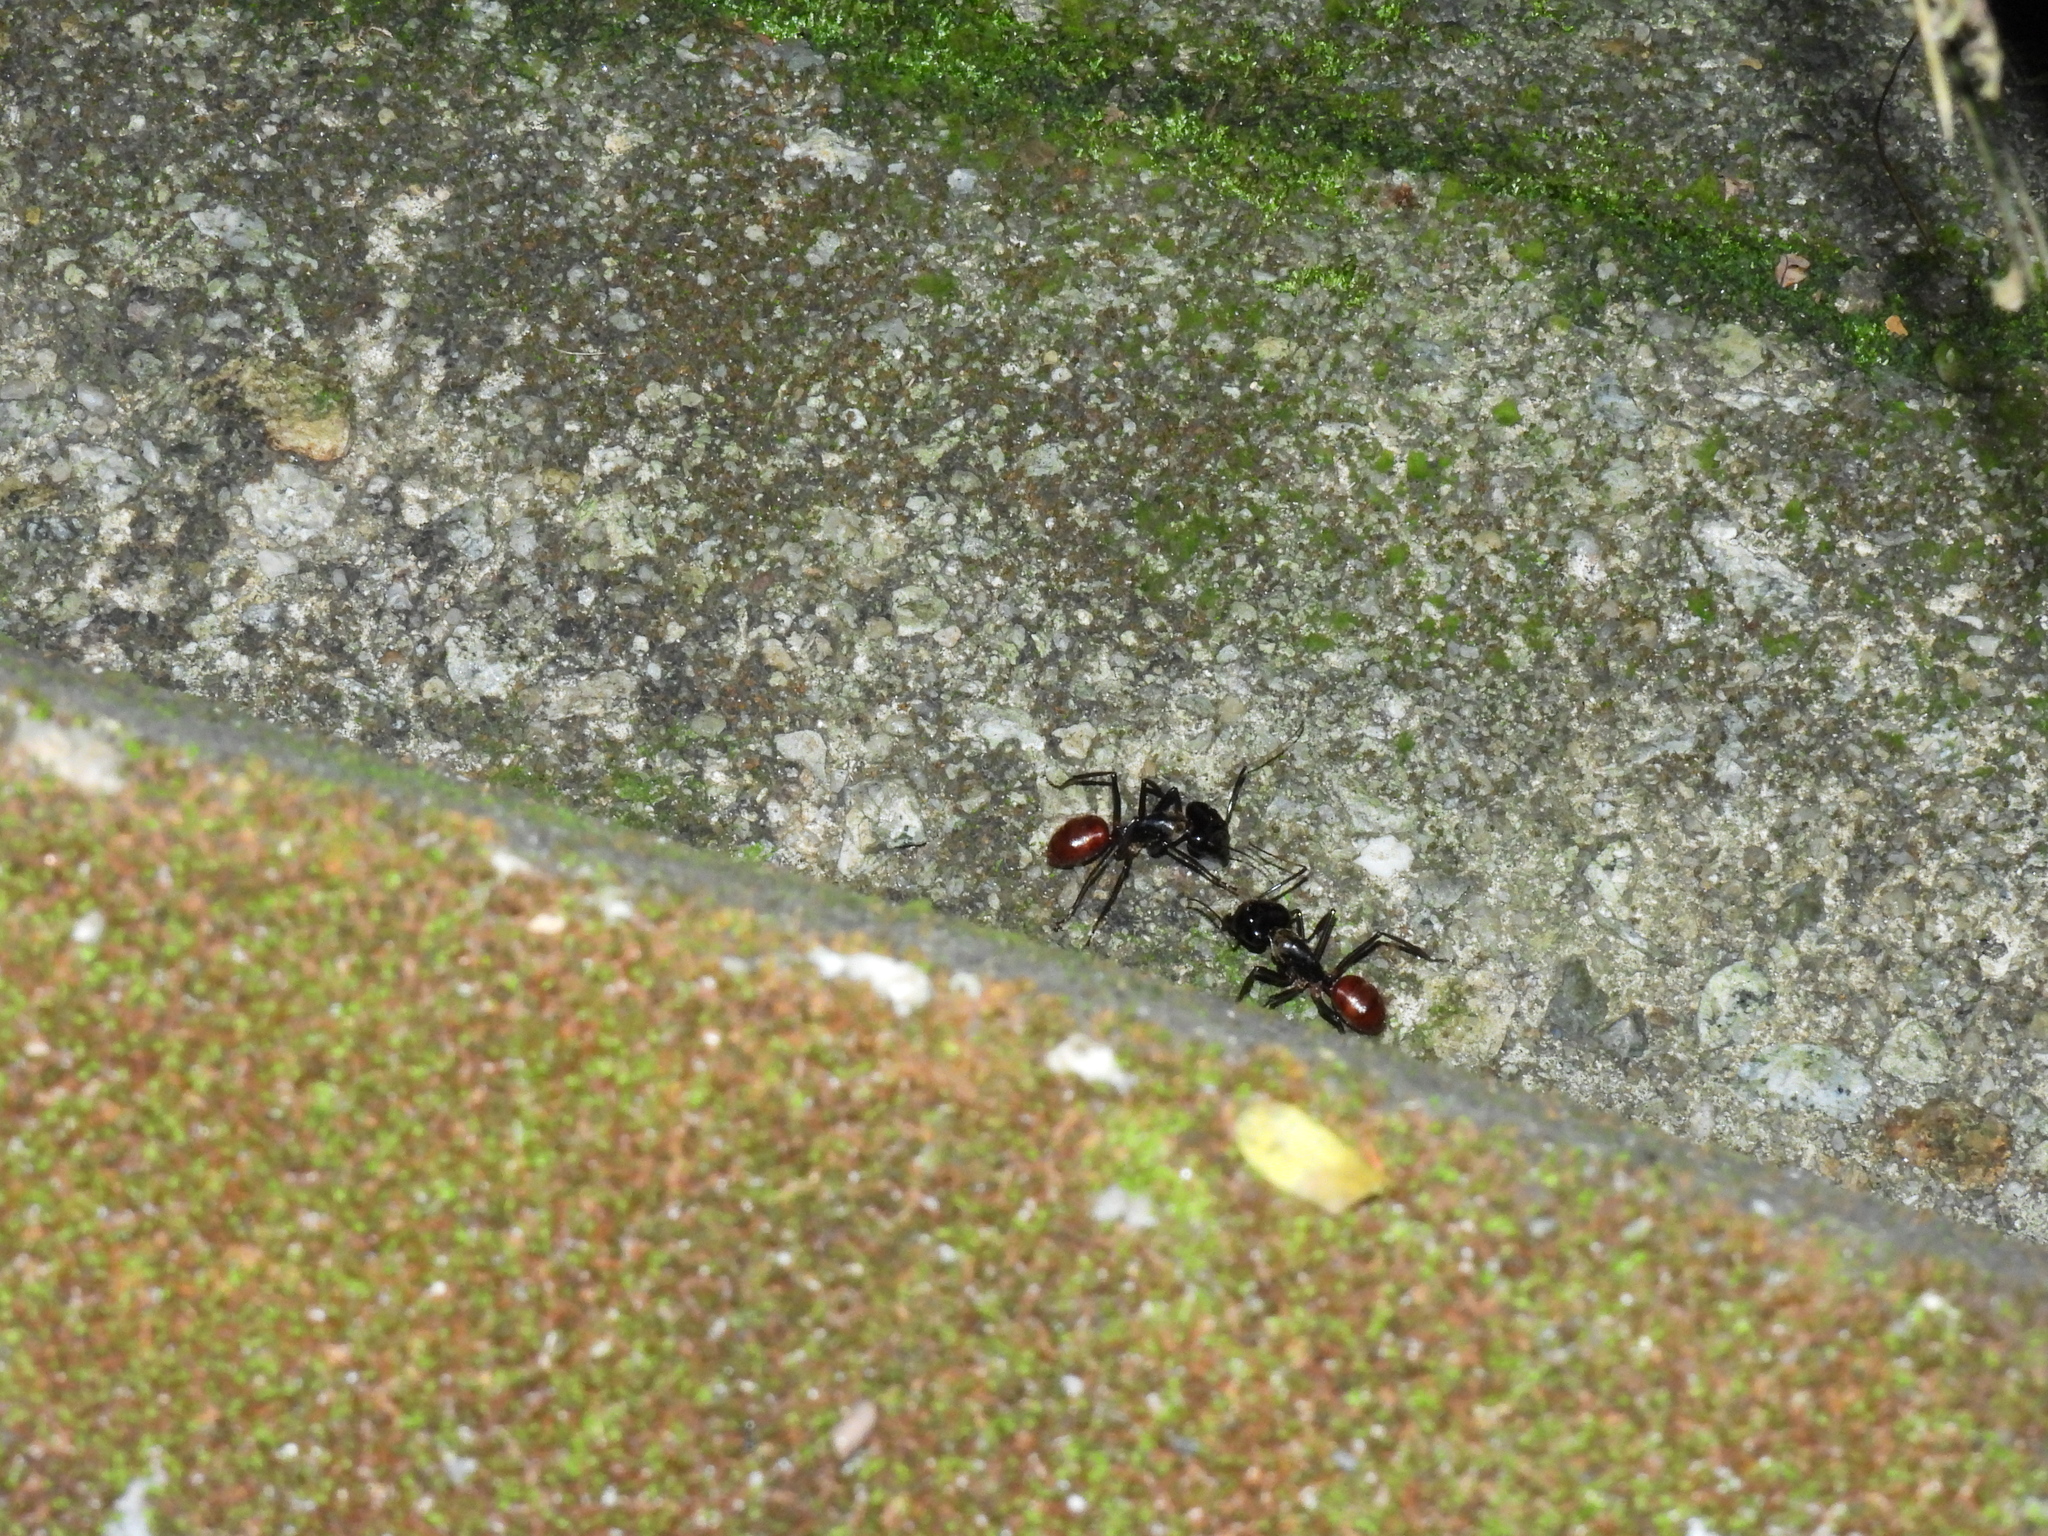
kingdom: Animalia
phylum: Arthropoda
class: Insecta
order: Hymenoptera
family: Formicidae
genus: Dinomyrmex
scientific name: Dinomyrmex
